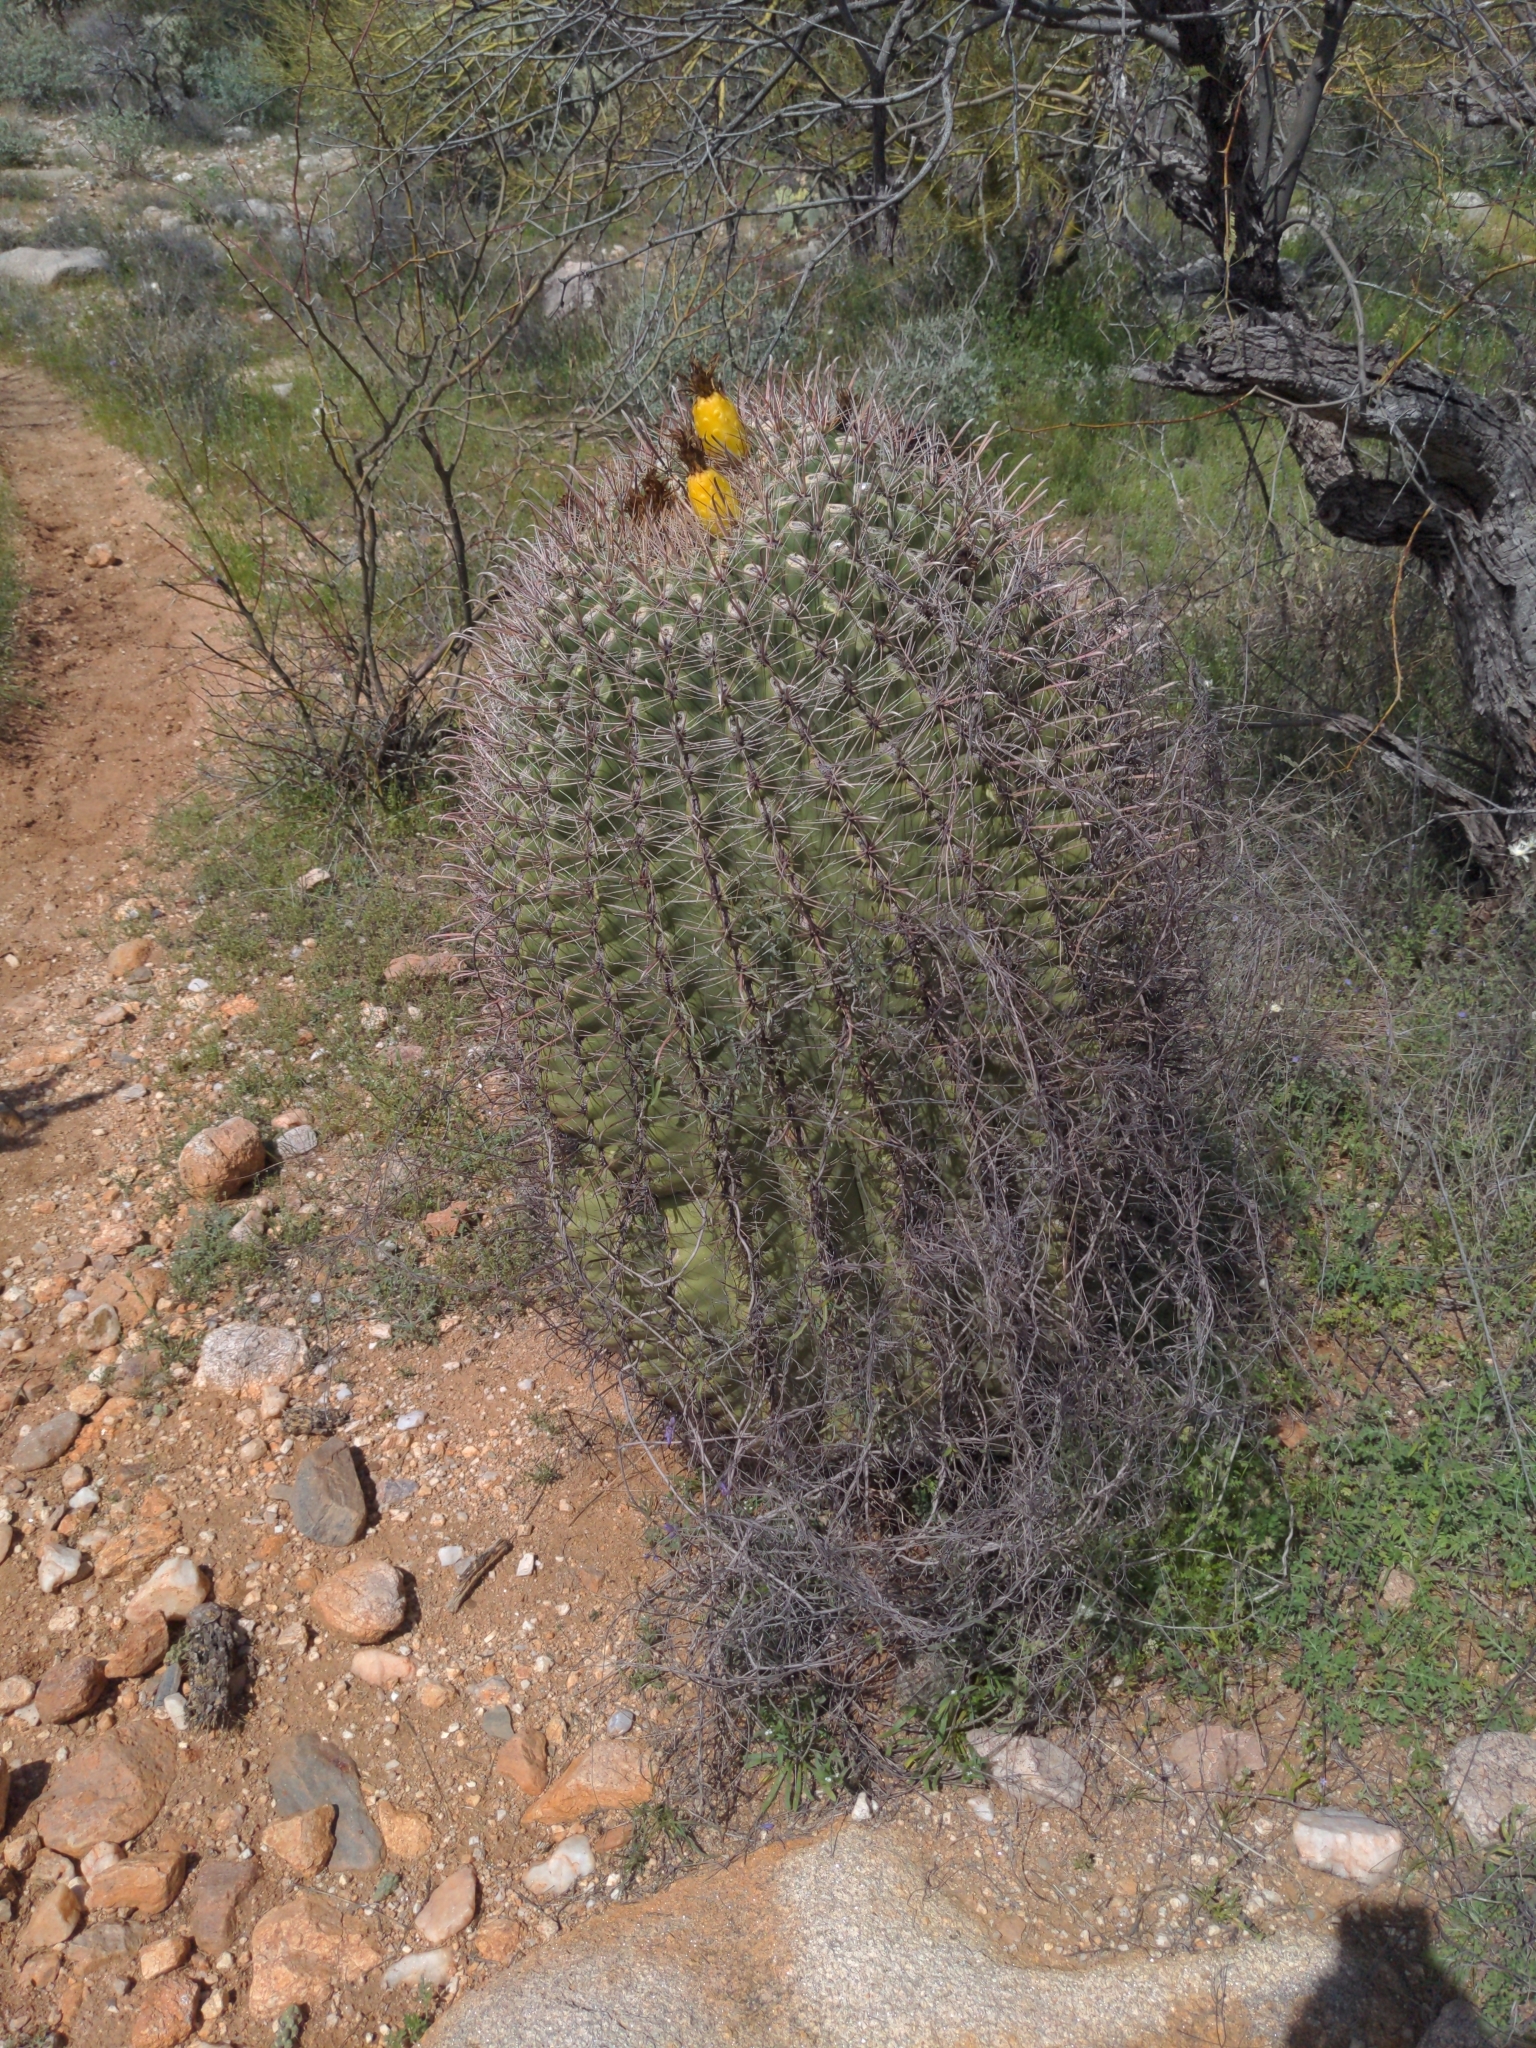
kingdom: Plantae
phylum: Tracheophyta
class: Magnoliopsida
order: Caryophyllales
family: Cactaceae
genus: Ferocactus
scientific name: Ferocactus wislizeni
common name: Candy barrel cactus
